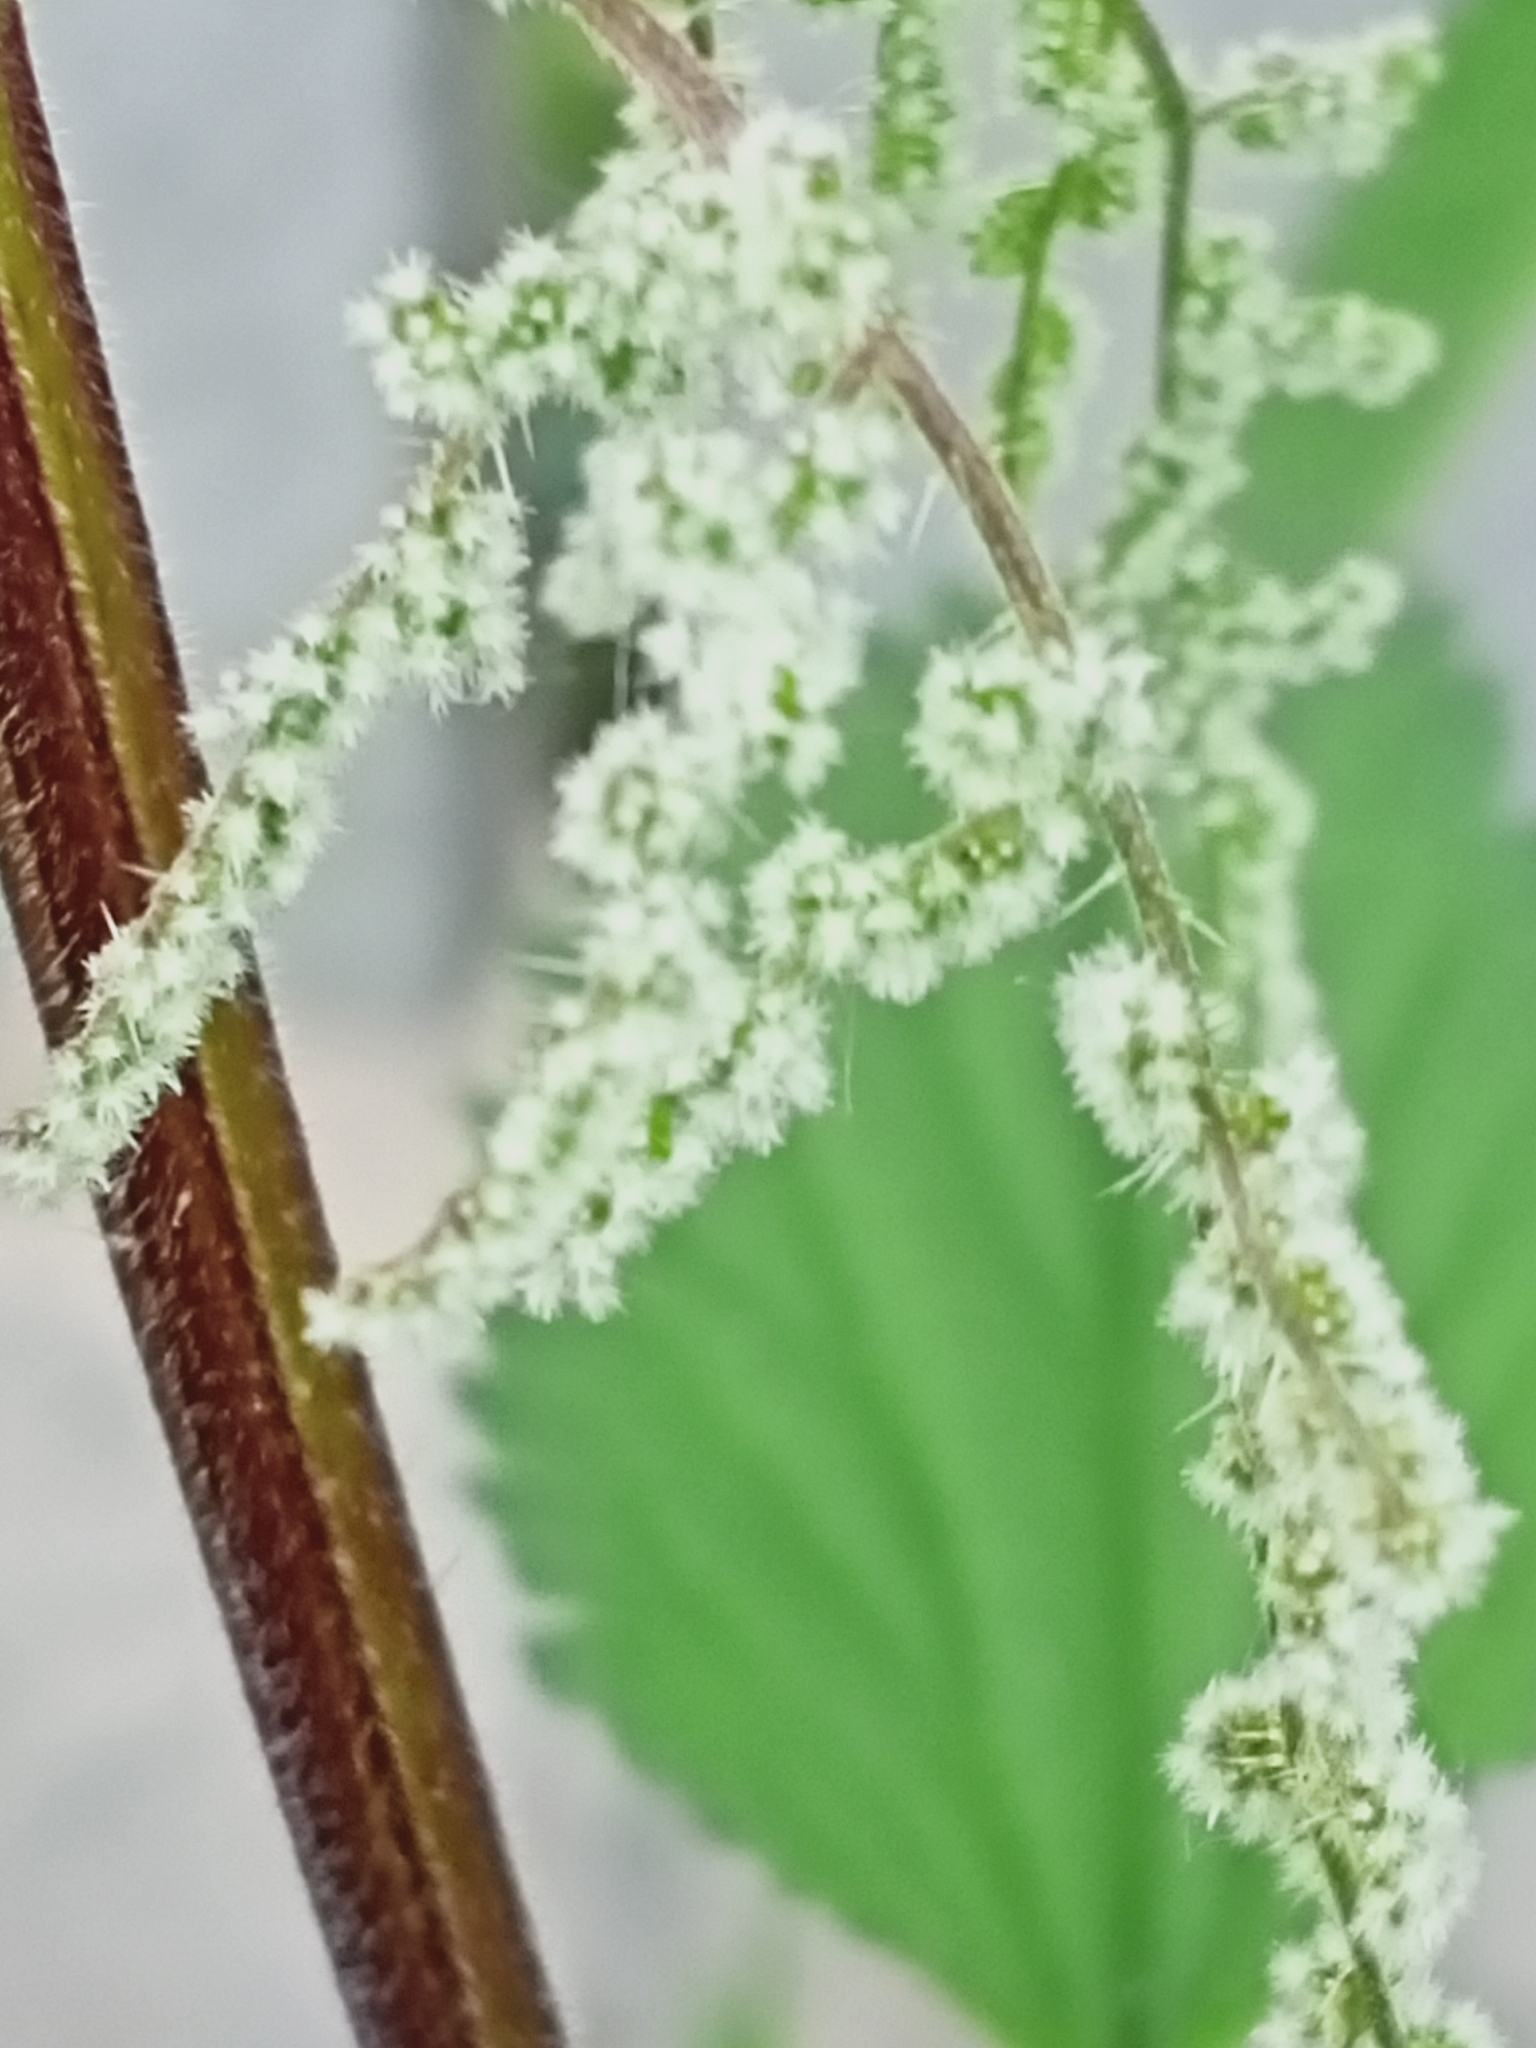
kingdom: Plantae
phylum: Tracheophyta
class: Magnoliopsida
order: Rosales
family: Urticaceae
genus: Urtica
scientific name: Urtica dioica
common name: Common nettle
